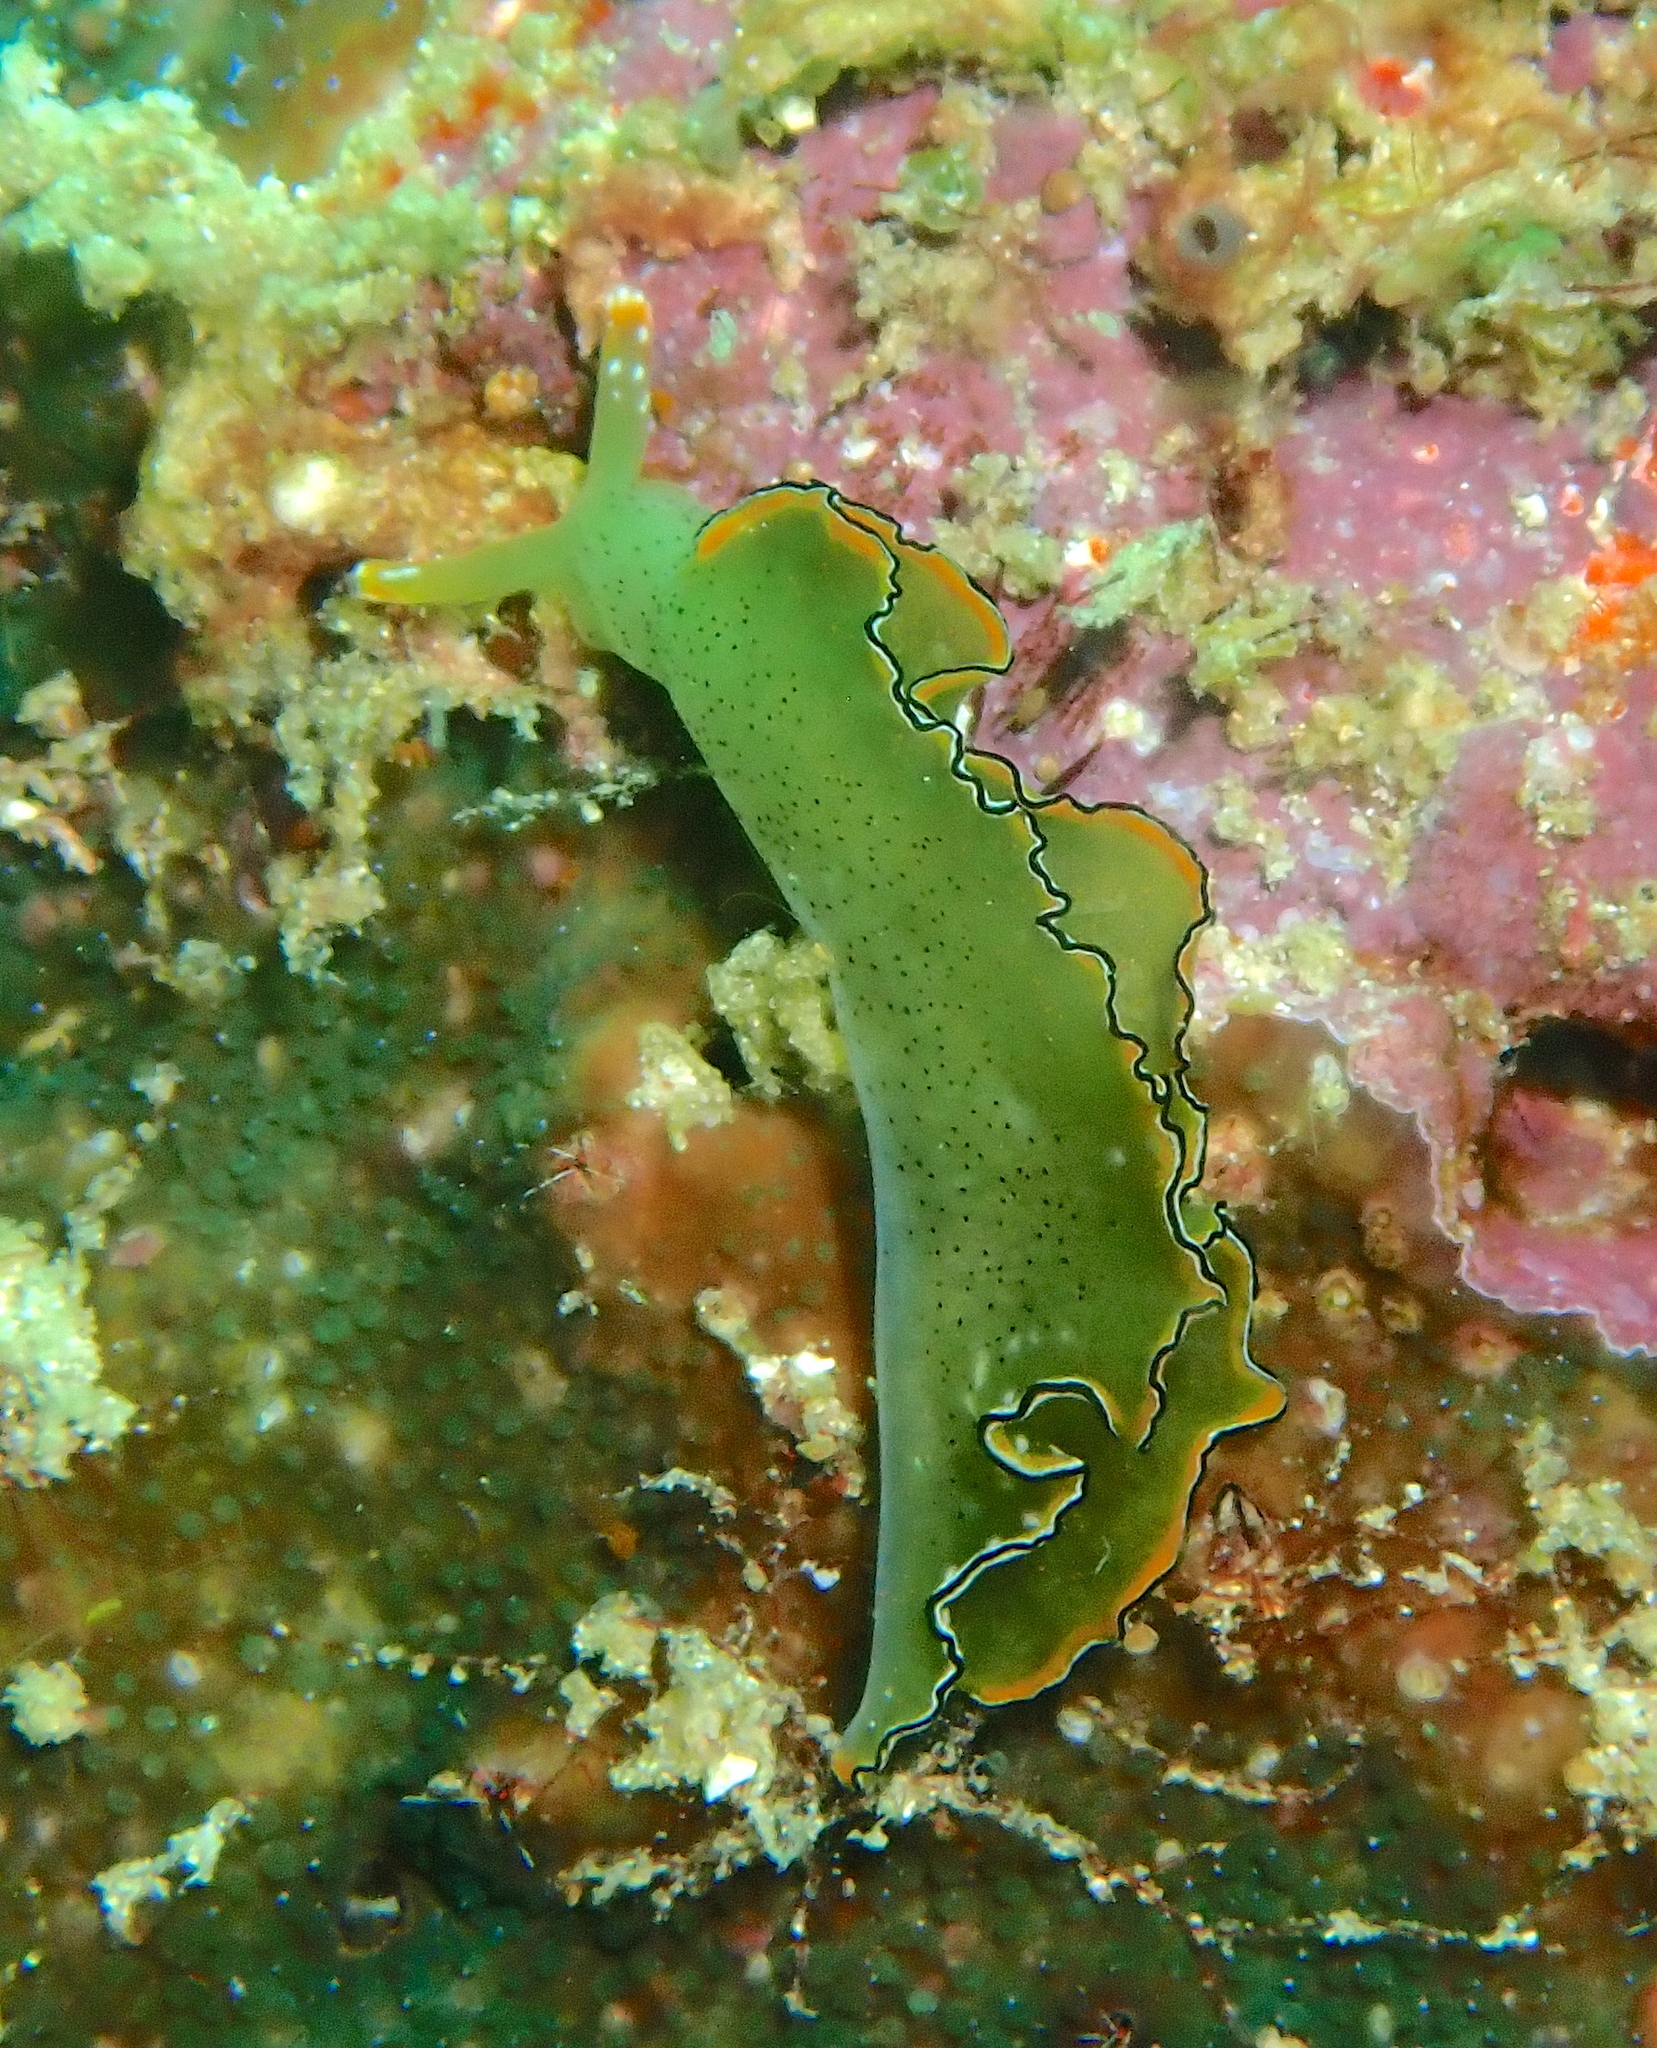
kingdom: Animalia
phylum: Mollusca
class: Gastropoda
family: Plakobranchidae
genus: Elysia
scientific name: Elysia marginata
